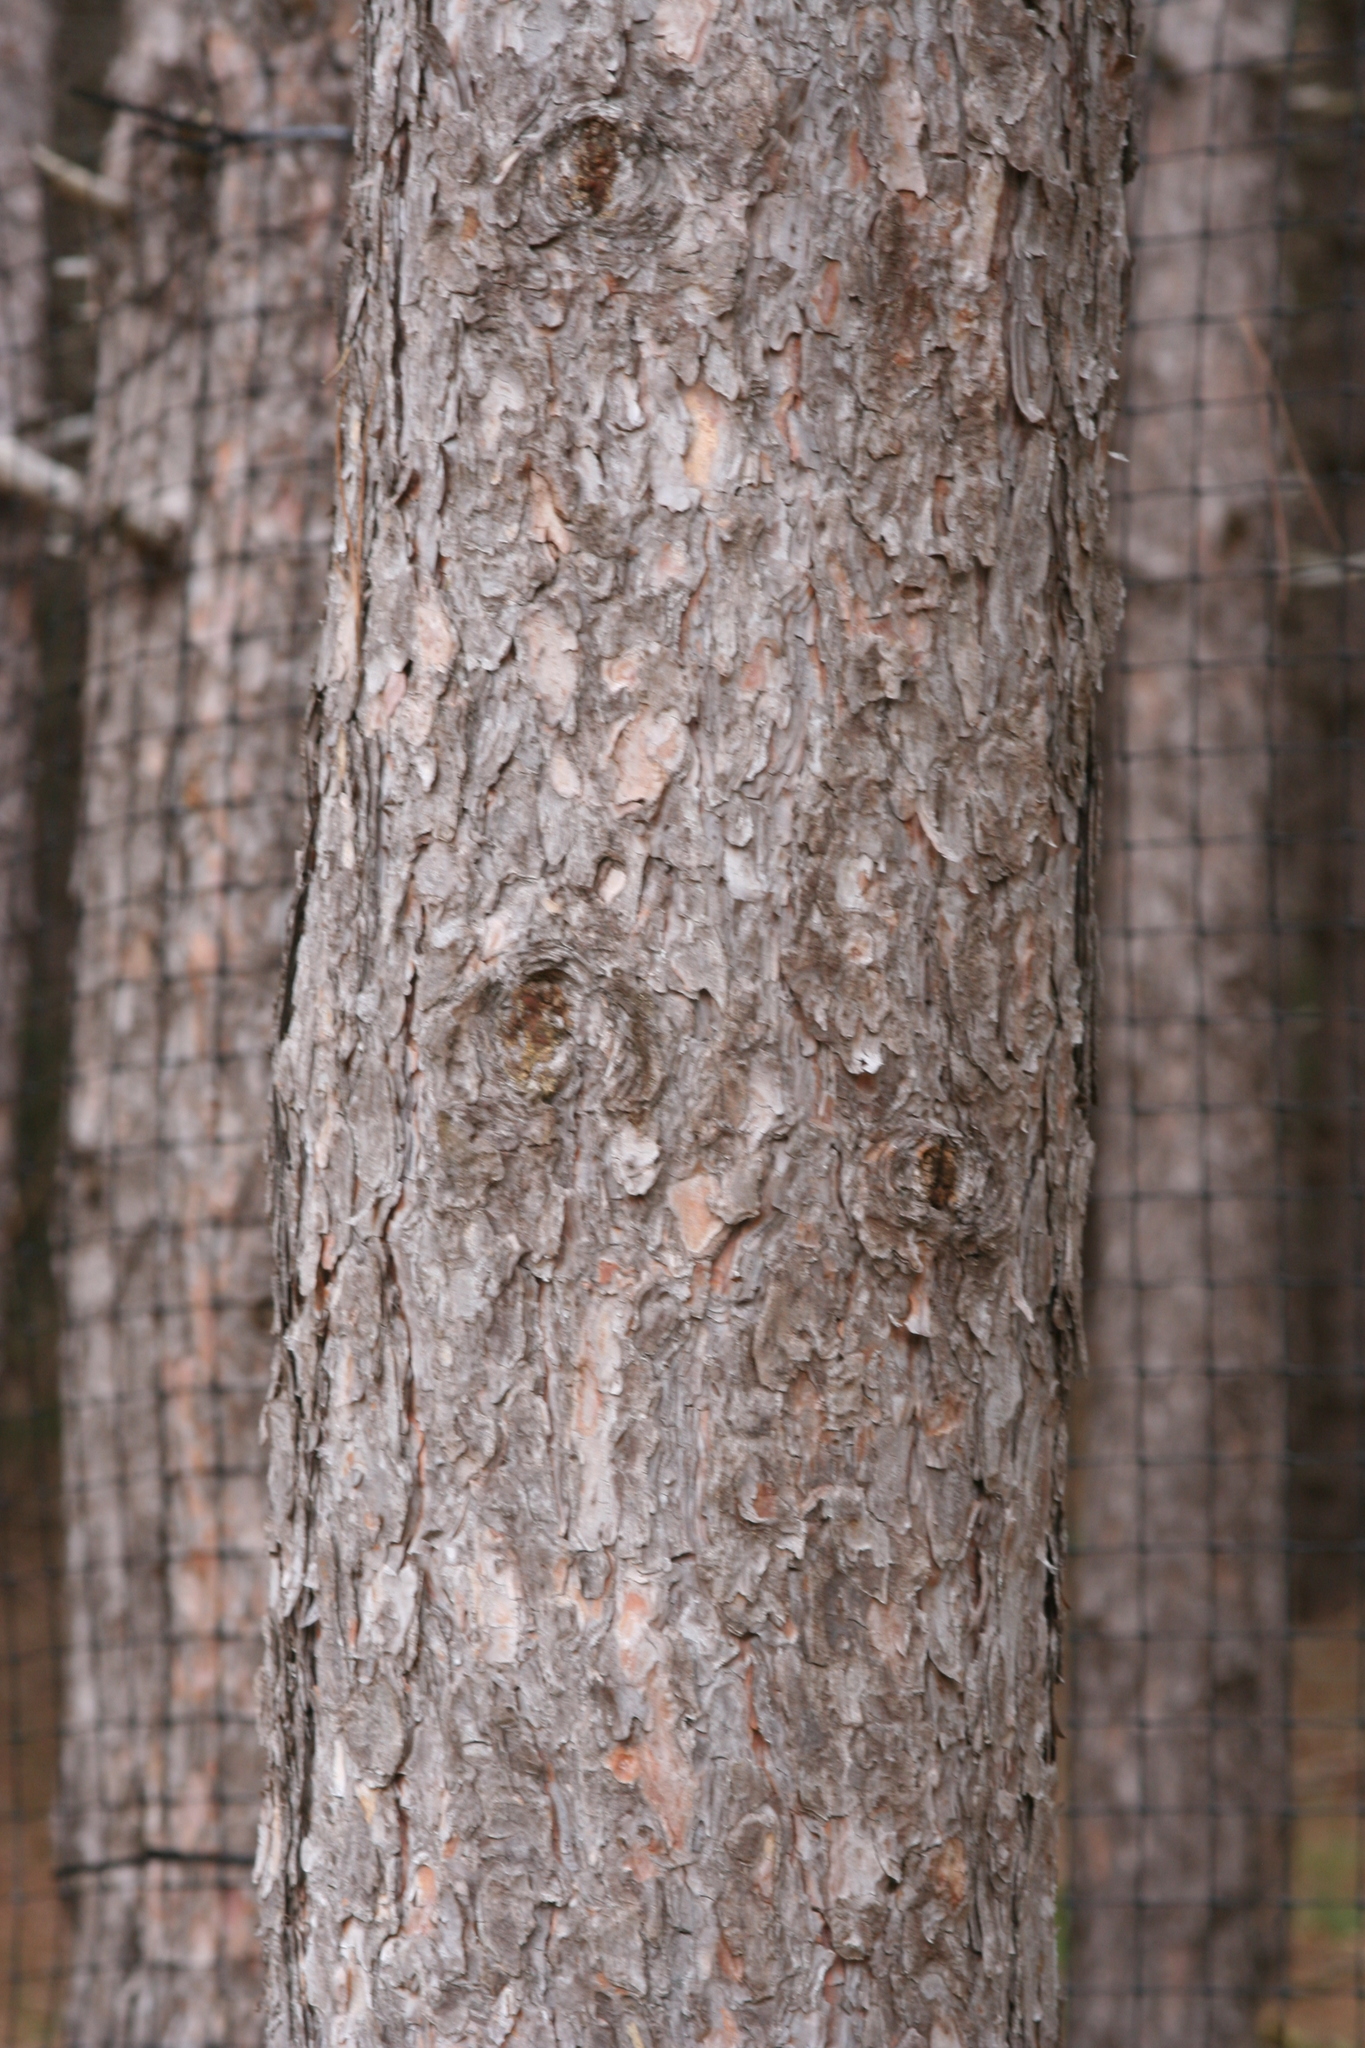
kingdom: Plantae
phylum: Tracheophyta
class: Pinopsida
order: Pinales
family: Pinaceae
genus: Pinus
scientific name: Pinus resinosa
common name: Norway pine
